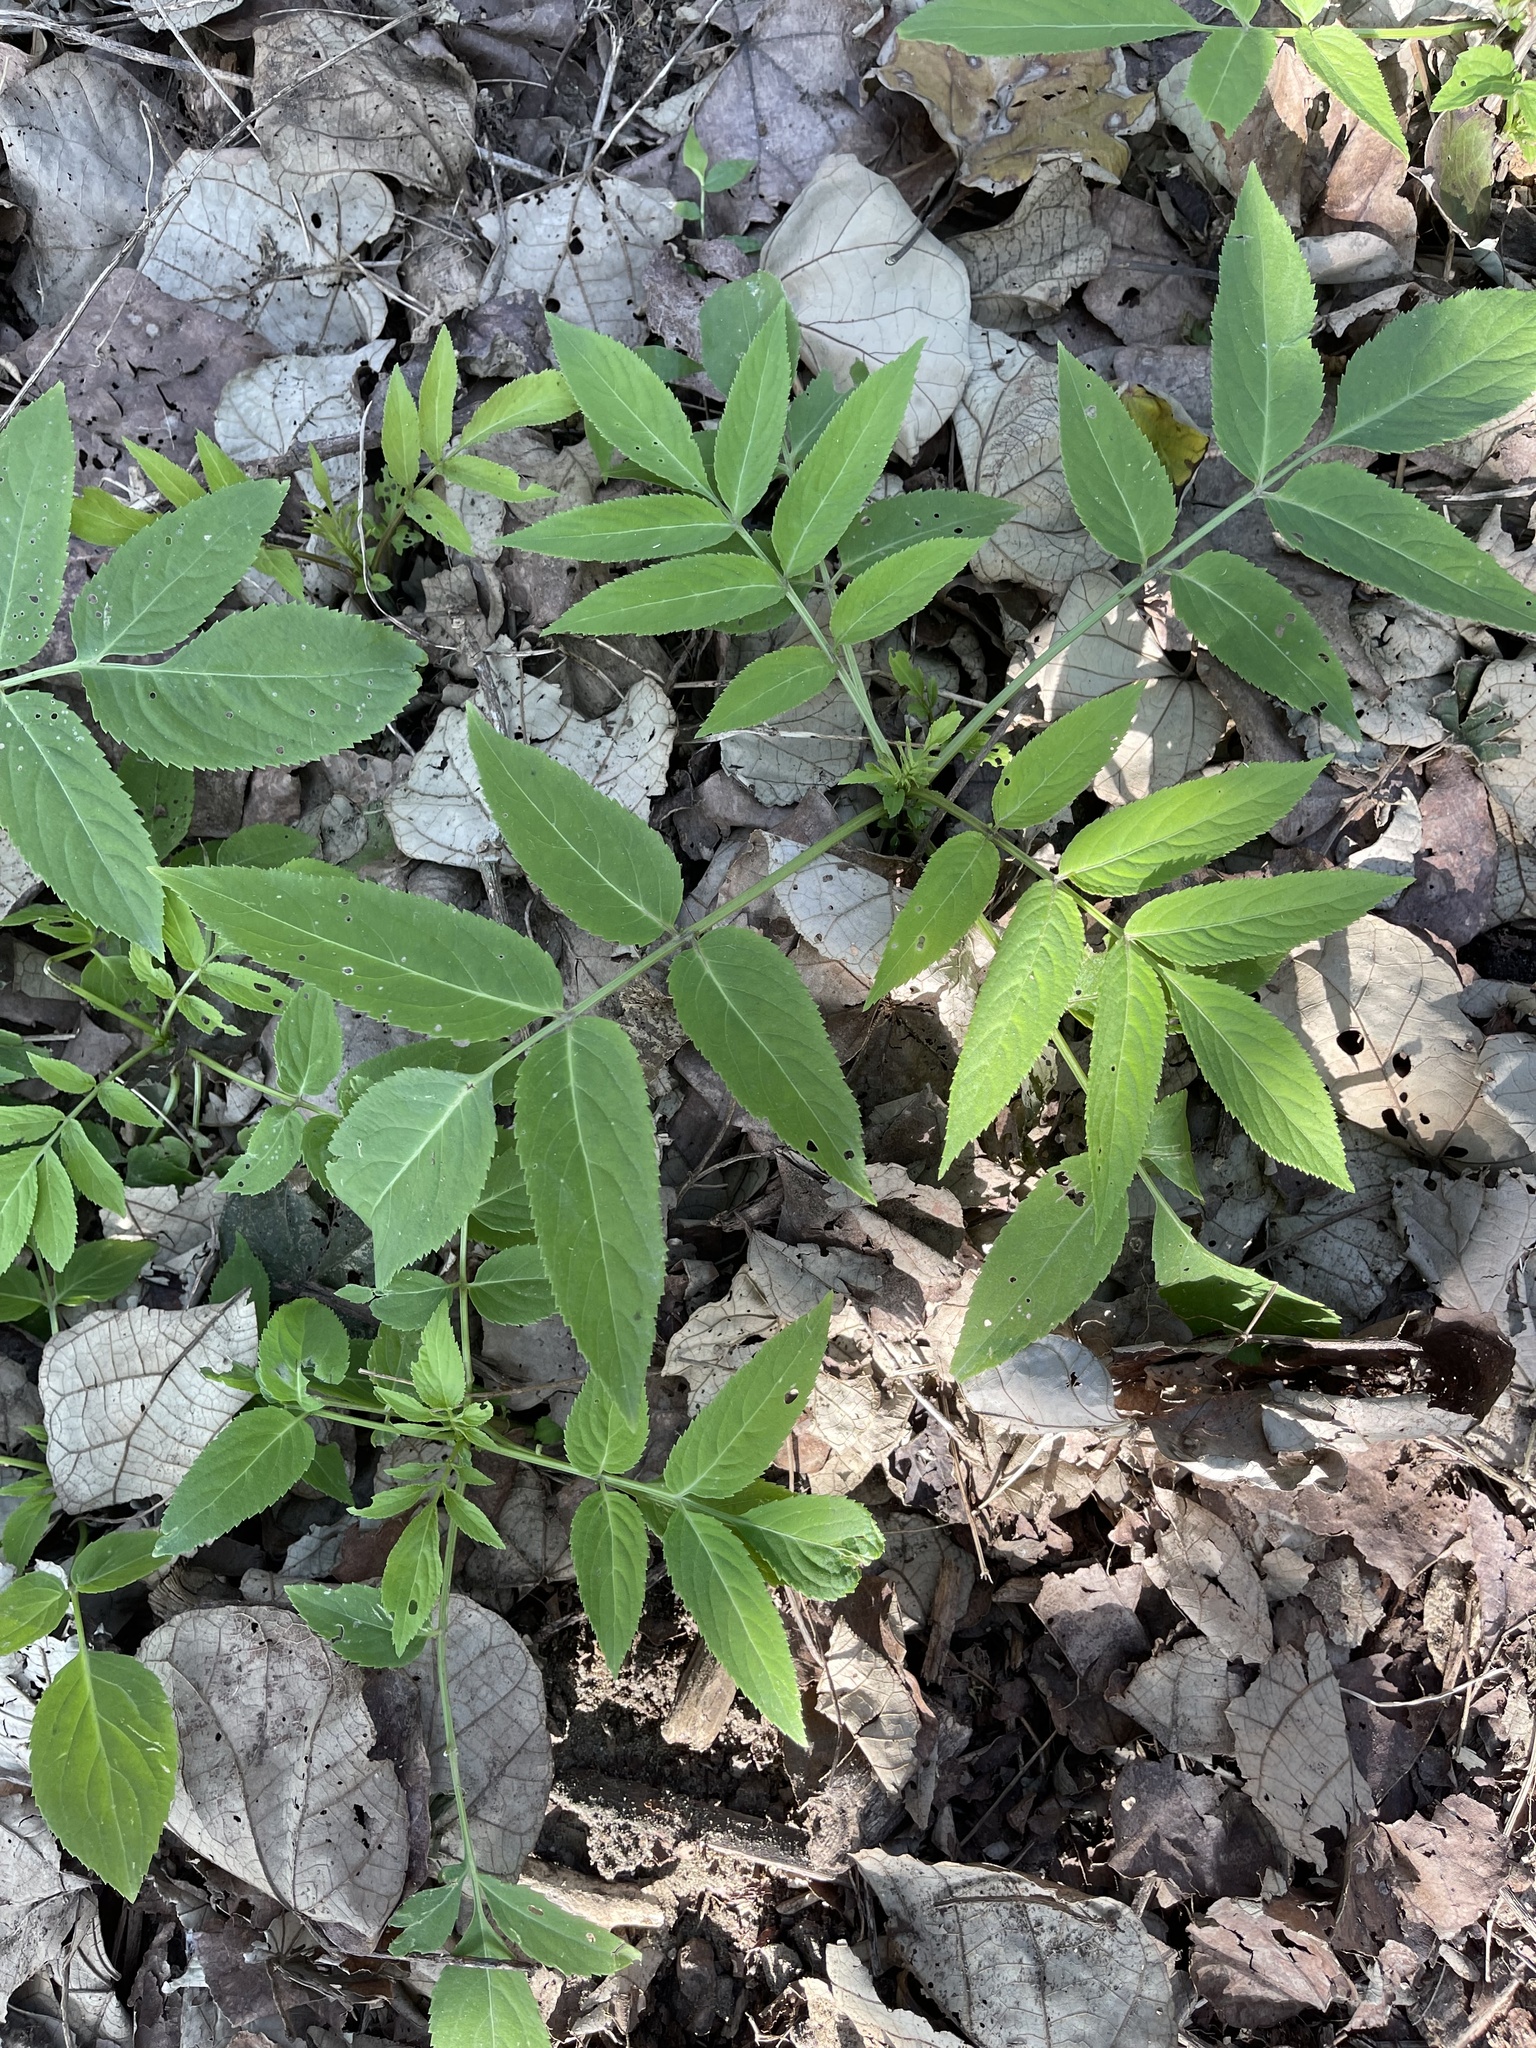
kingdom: Plantae
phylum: Tracheophyta
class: Magnoliopsida
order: Dipsacales
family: Viburnaceae
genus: Sambucus
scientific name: Sambucus javanica
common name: Chinese elder
